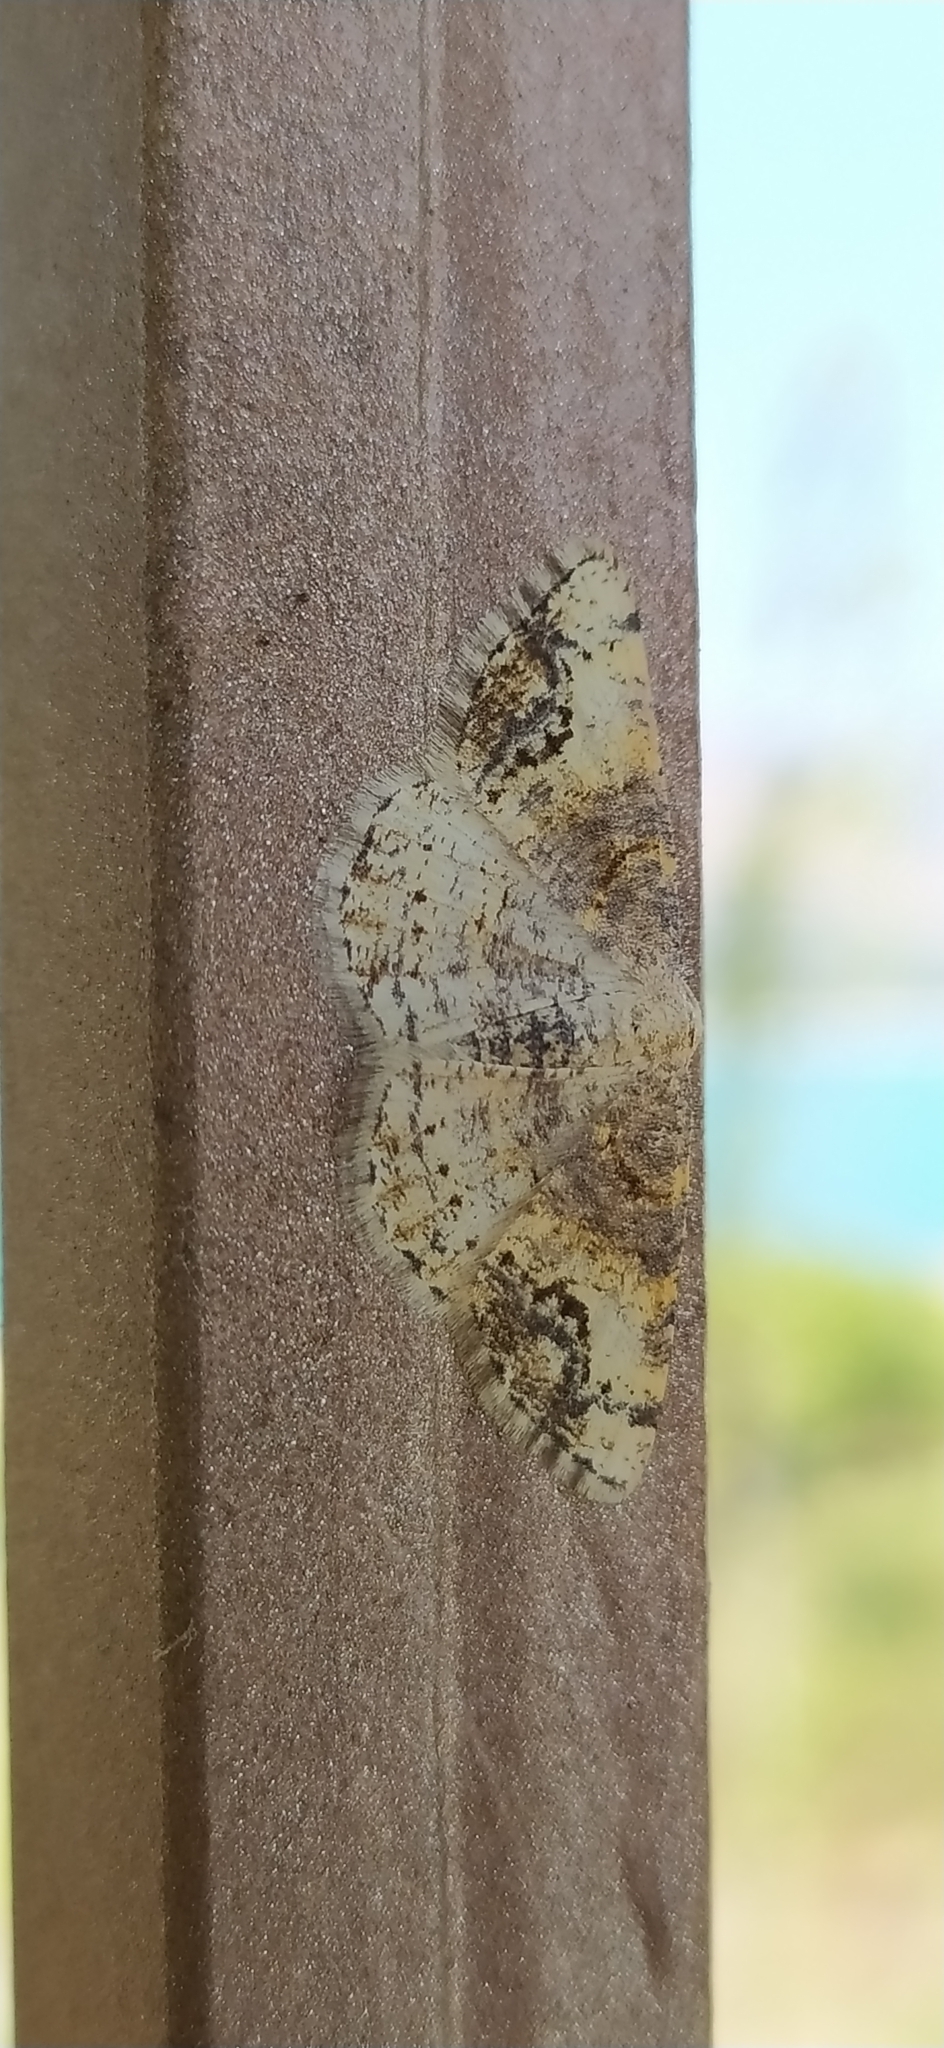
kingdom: Animalia
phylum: Arthropoda
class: Insecta
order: Lepidoptera
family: Geometridae
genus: Stegania
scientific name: Stegania dalmataria
